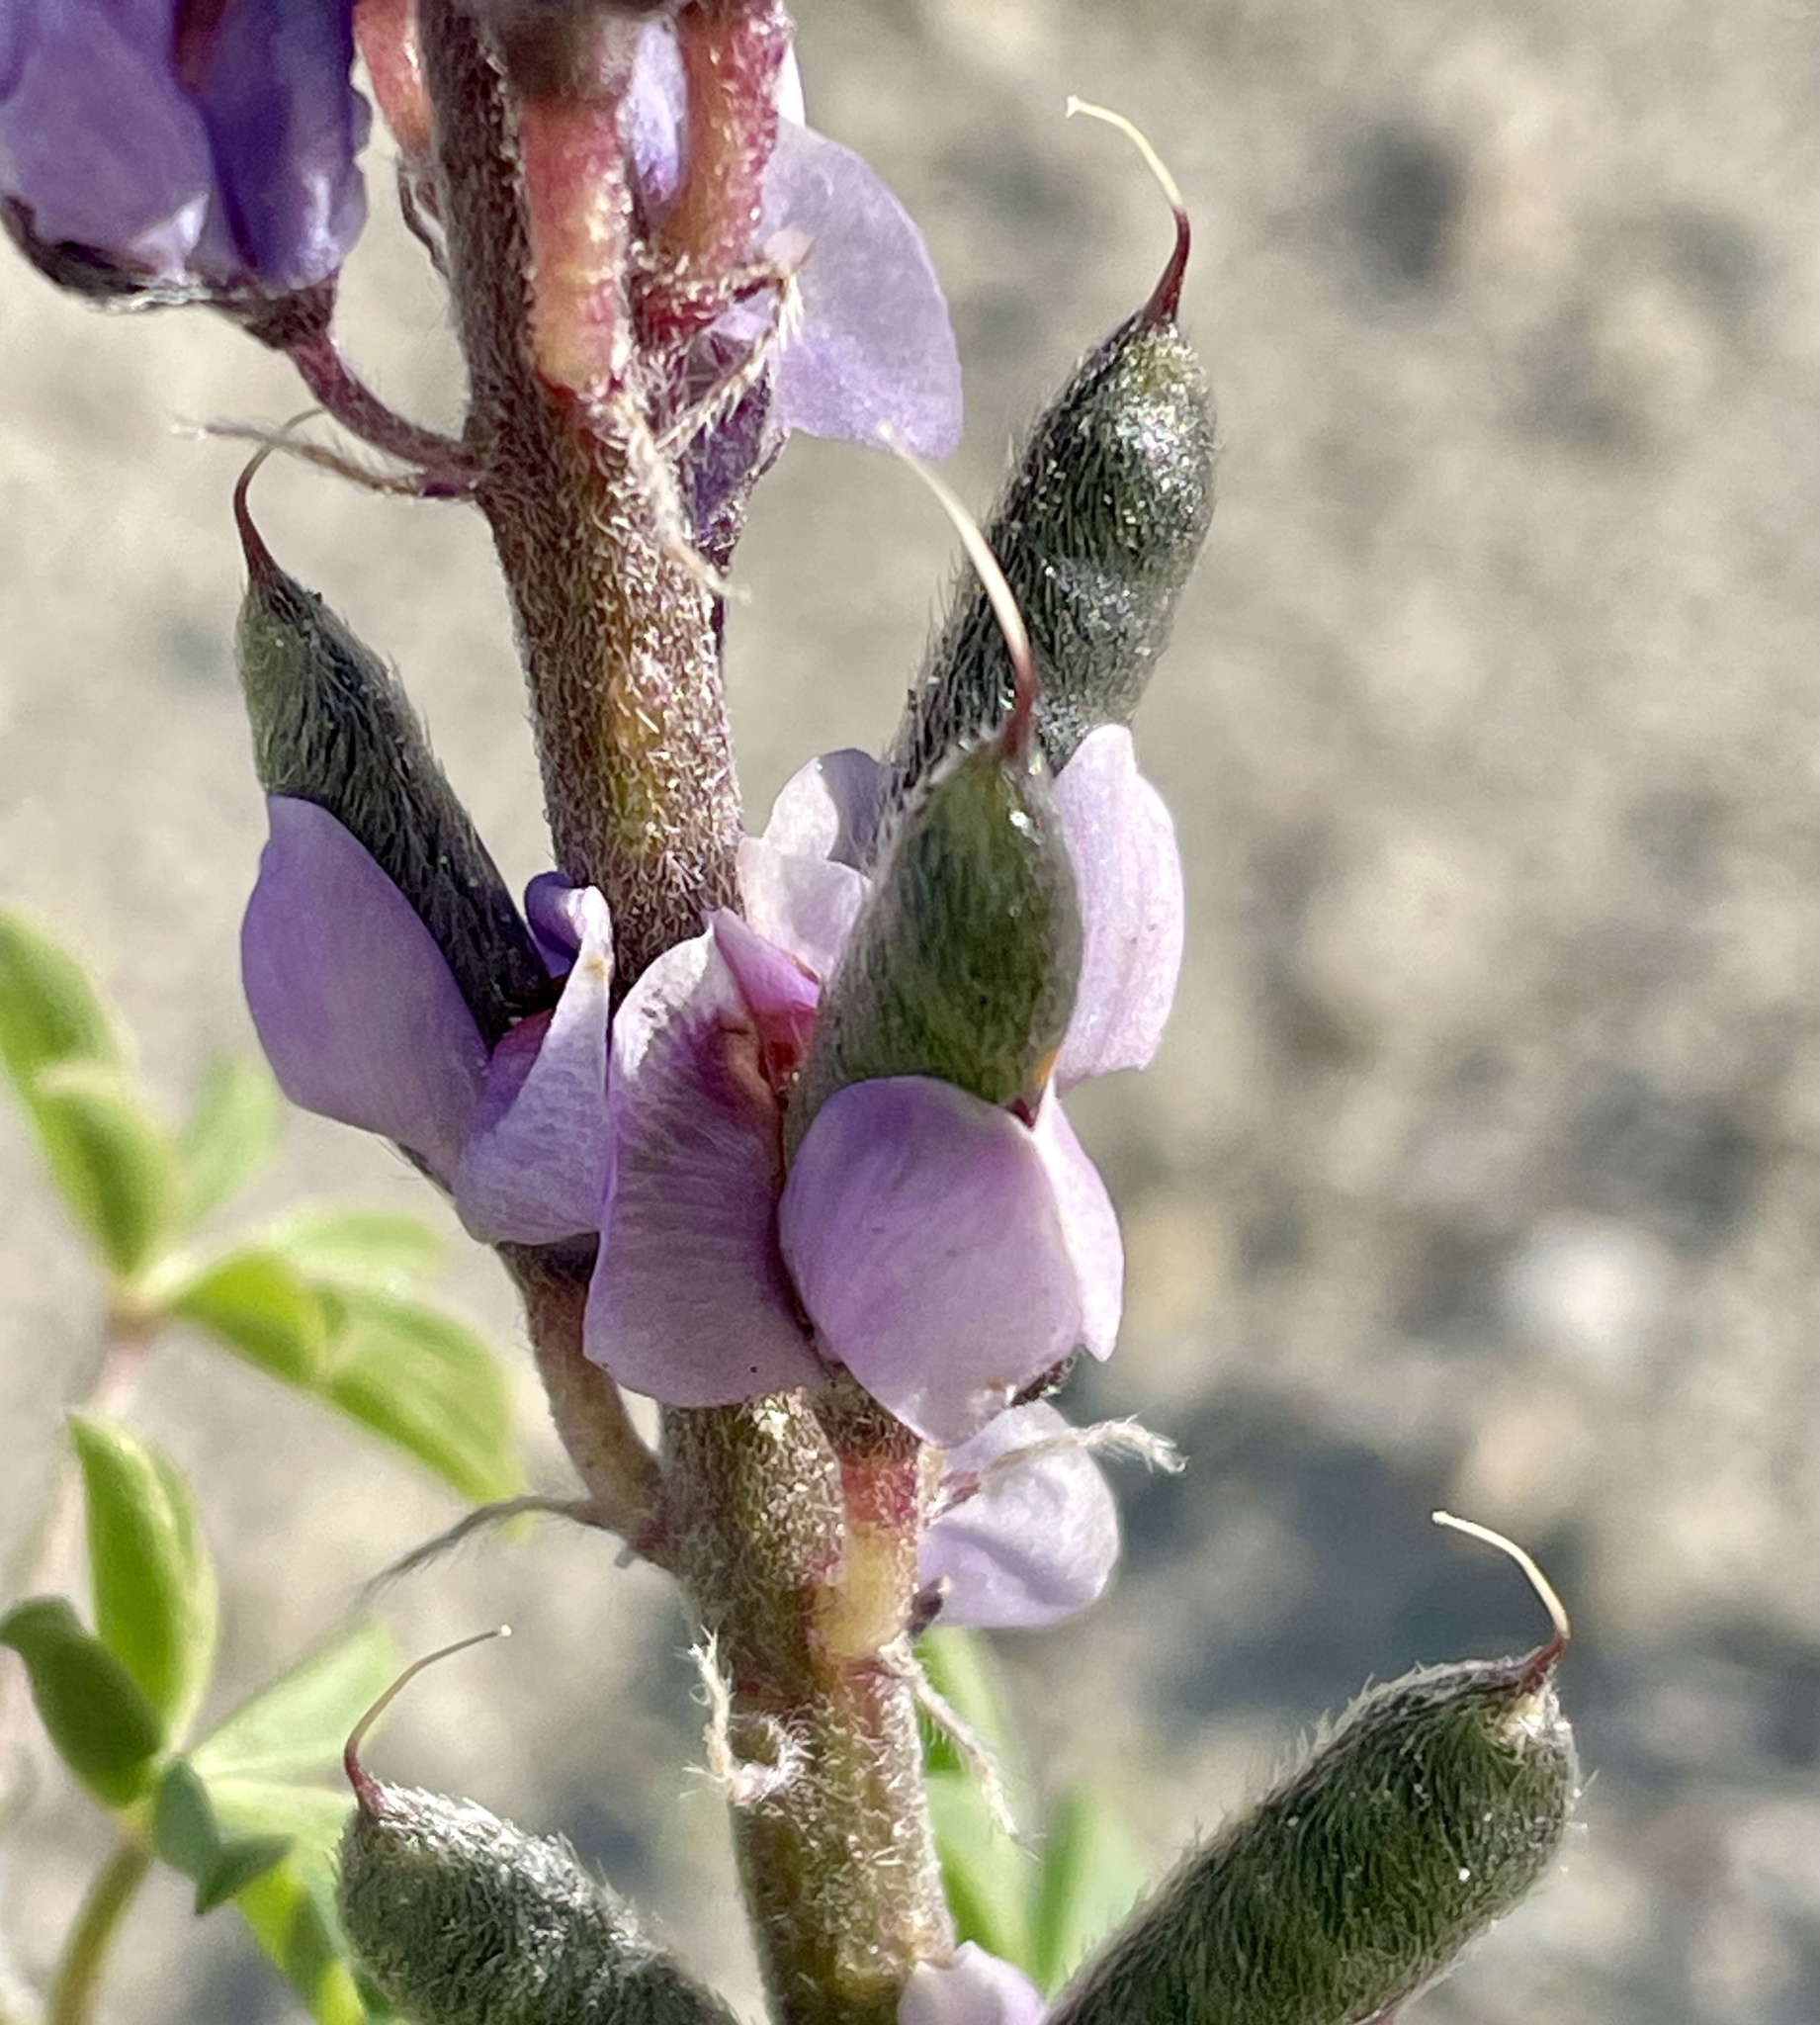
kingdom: Plantae
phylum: Tracheophyta
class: Magnoliopsida
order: Fabales
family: Fabaceae
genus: Lupinus
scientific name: Lupinus arizonicus
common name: Arizona lupine
